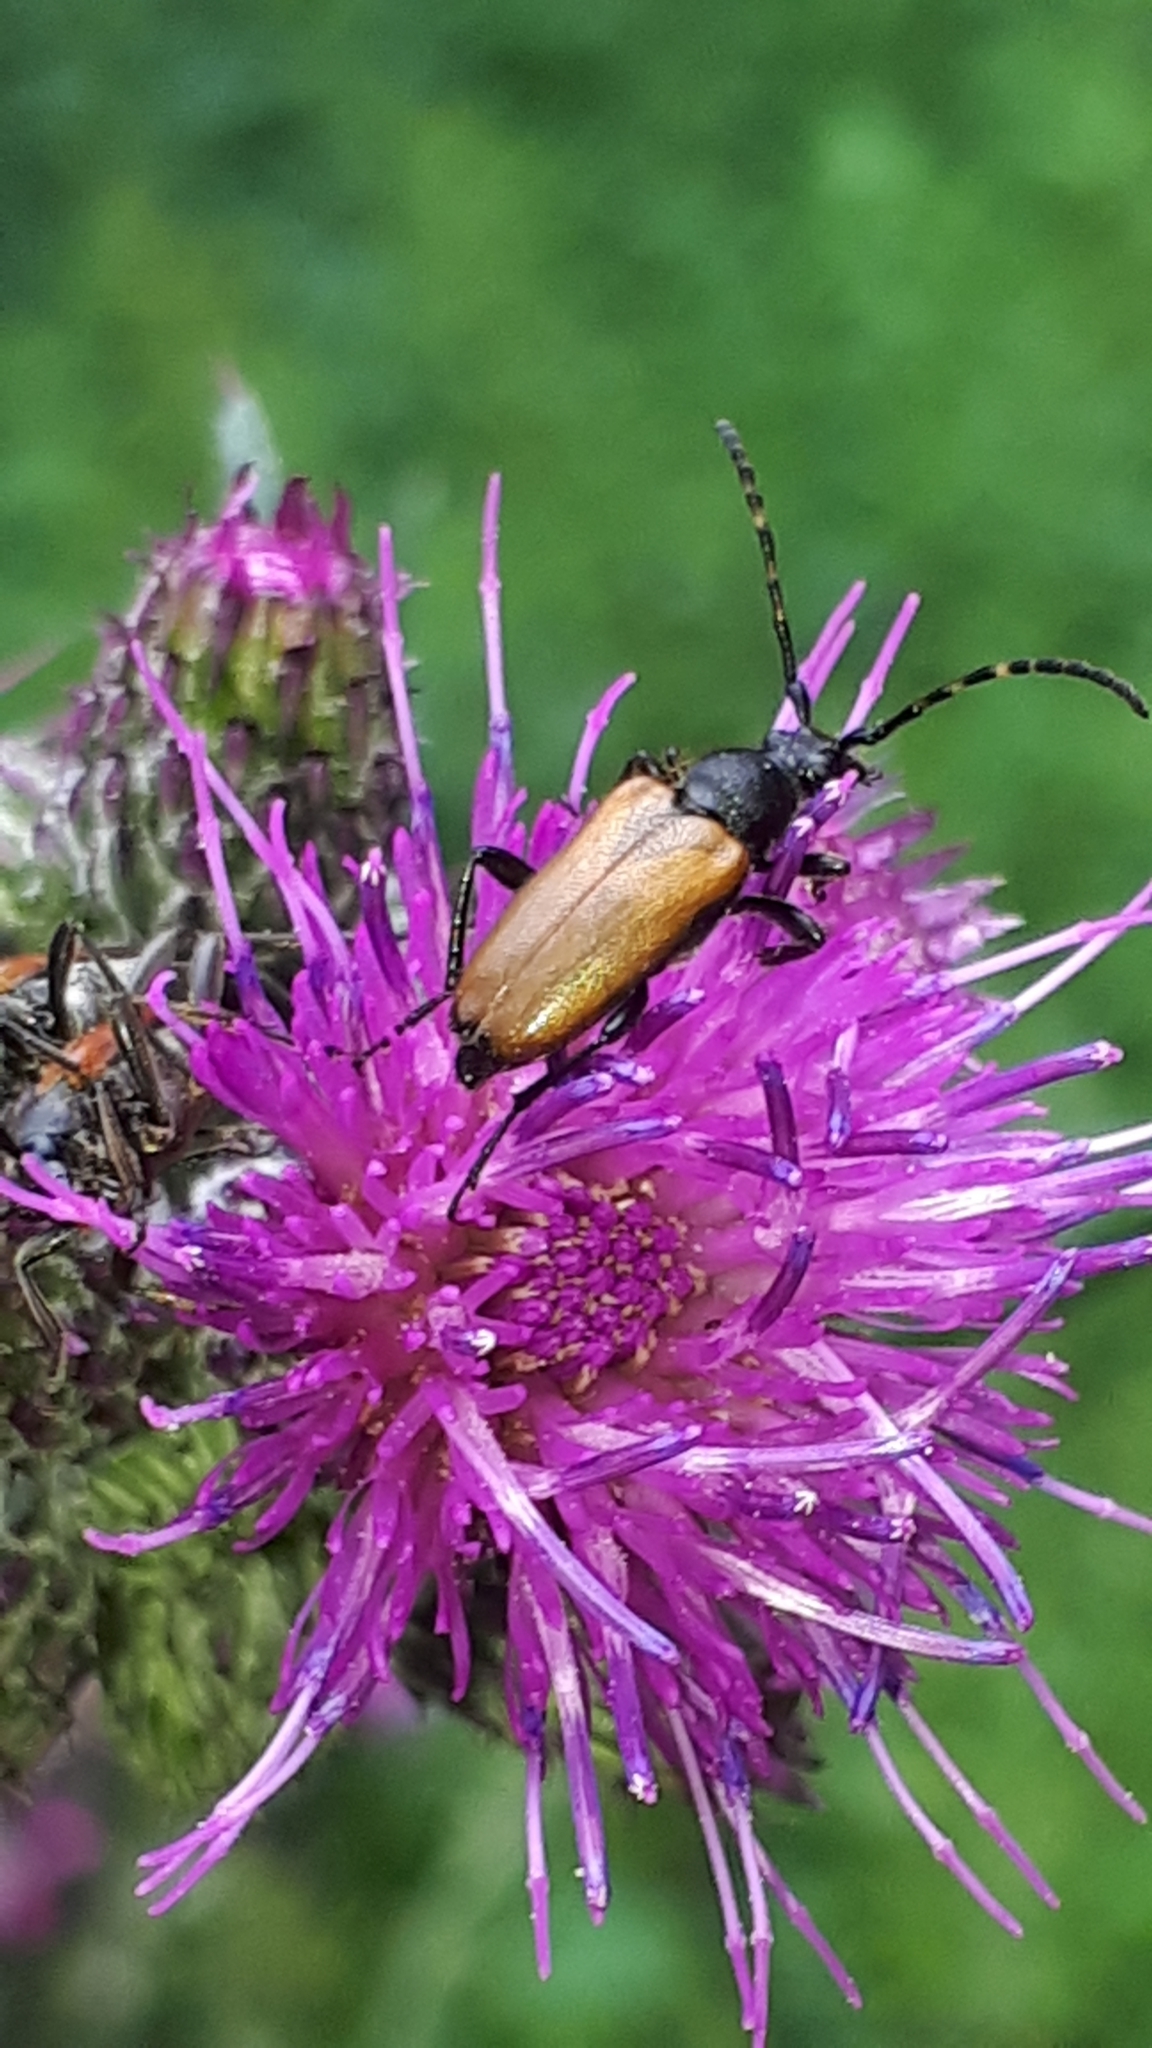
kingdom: Animalia
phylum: Arthropoda
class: Insecta
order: Coleoptera
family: Cerambycidae
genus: Paracorymbia
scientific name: Paracorymbia maculicornis
